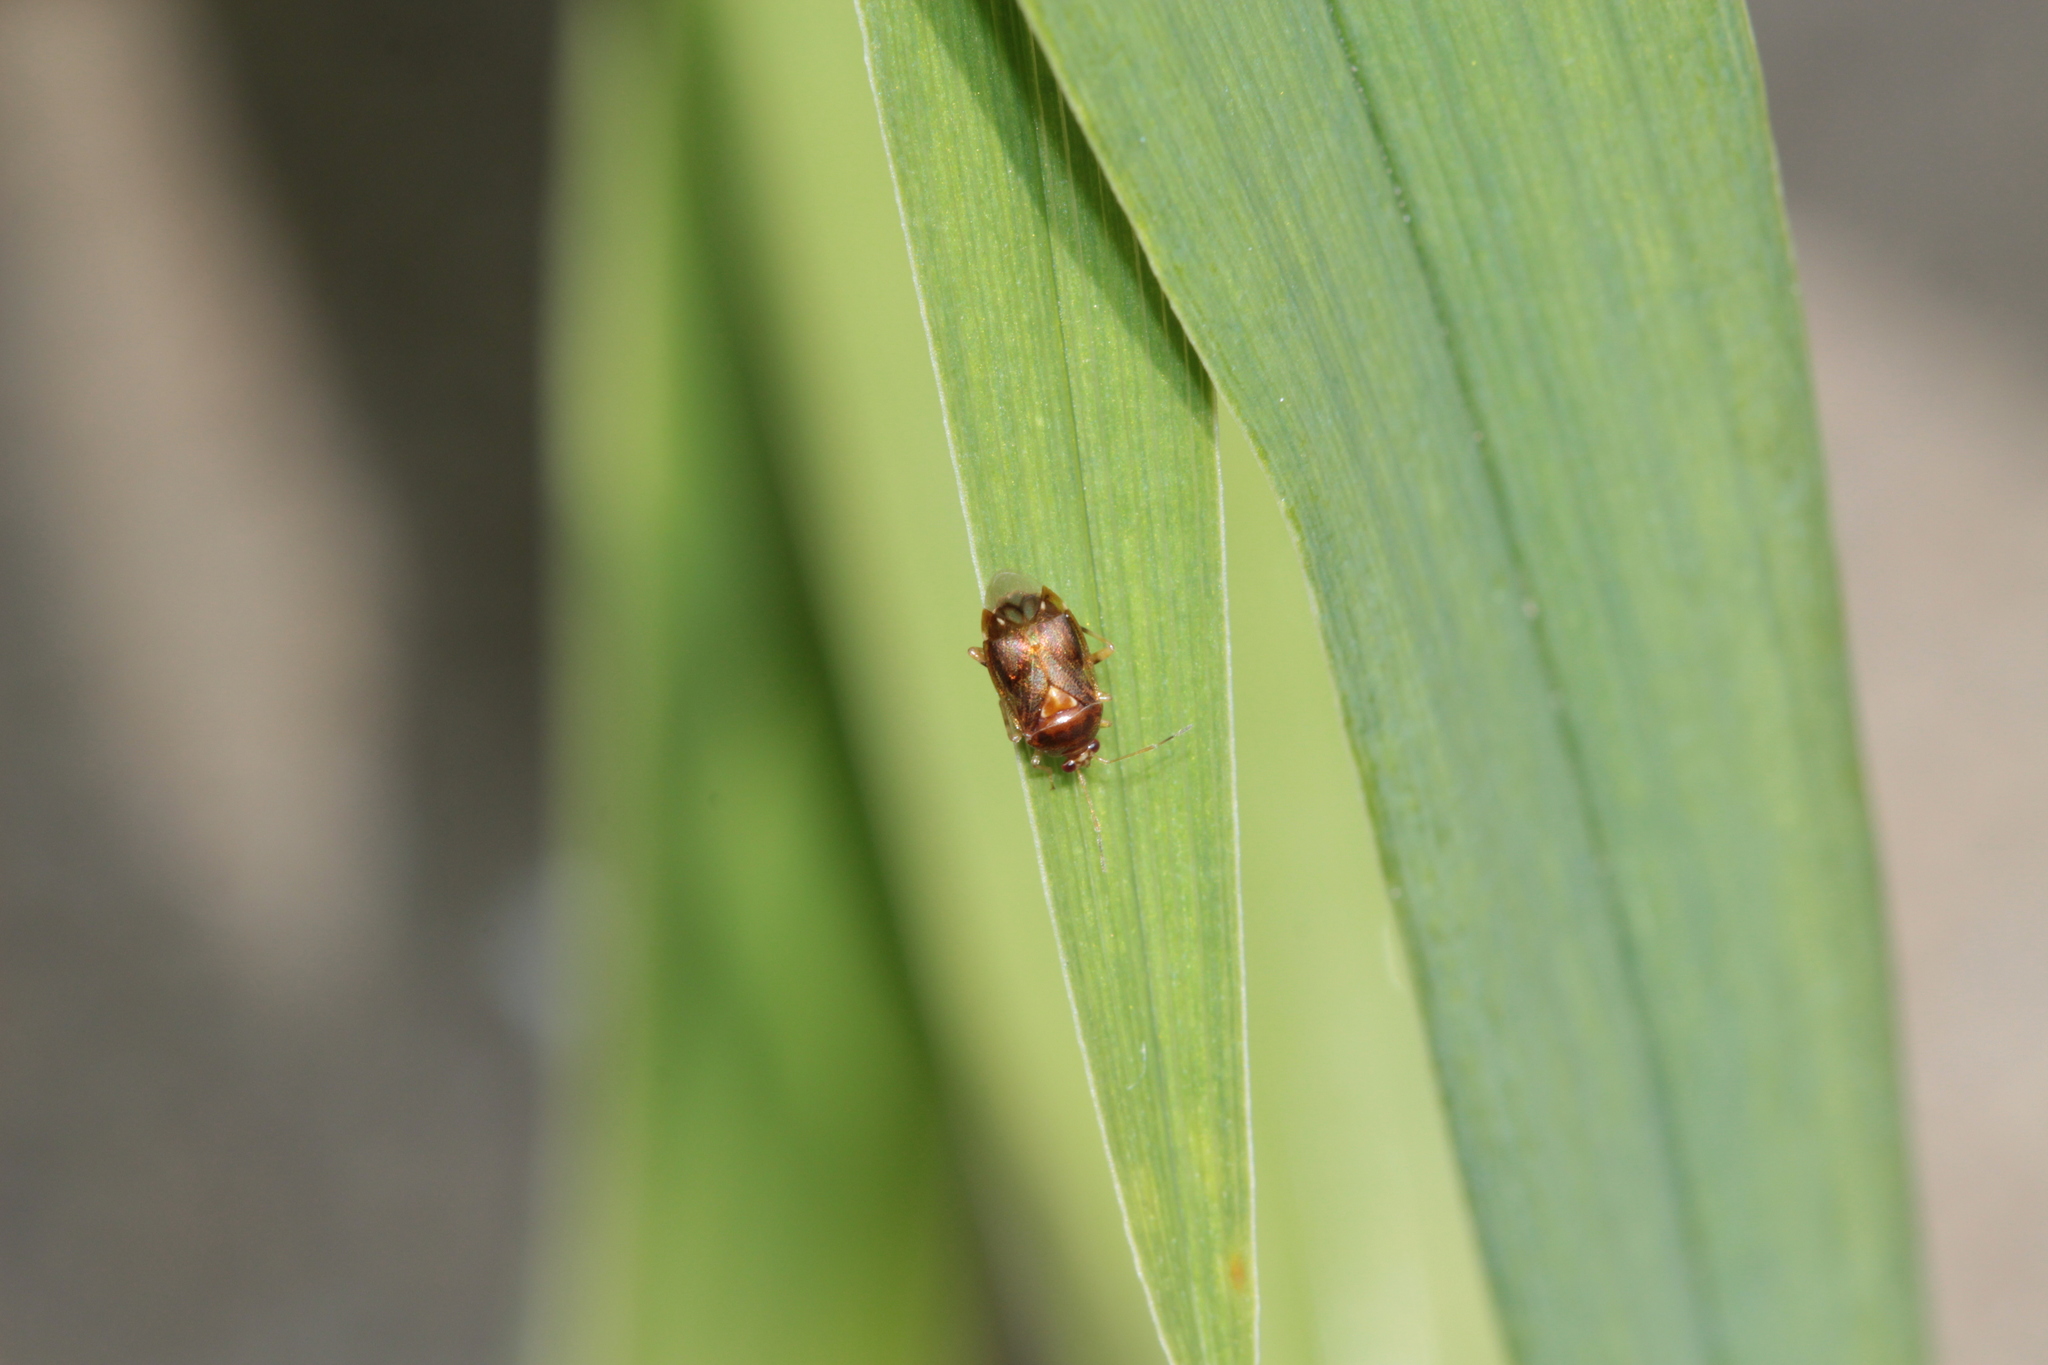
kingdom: Animalia
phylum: Arthropoda
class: Insecta
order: Hemiptera
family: Miridae
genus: Deraeocoris
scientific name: Deraeocoris lutescens
